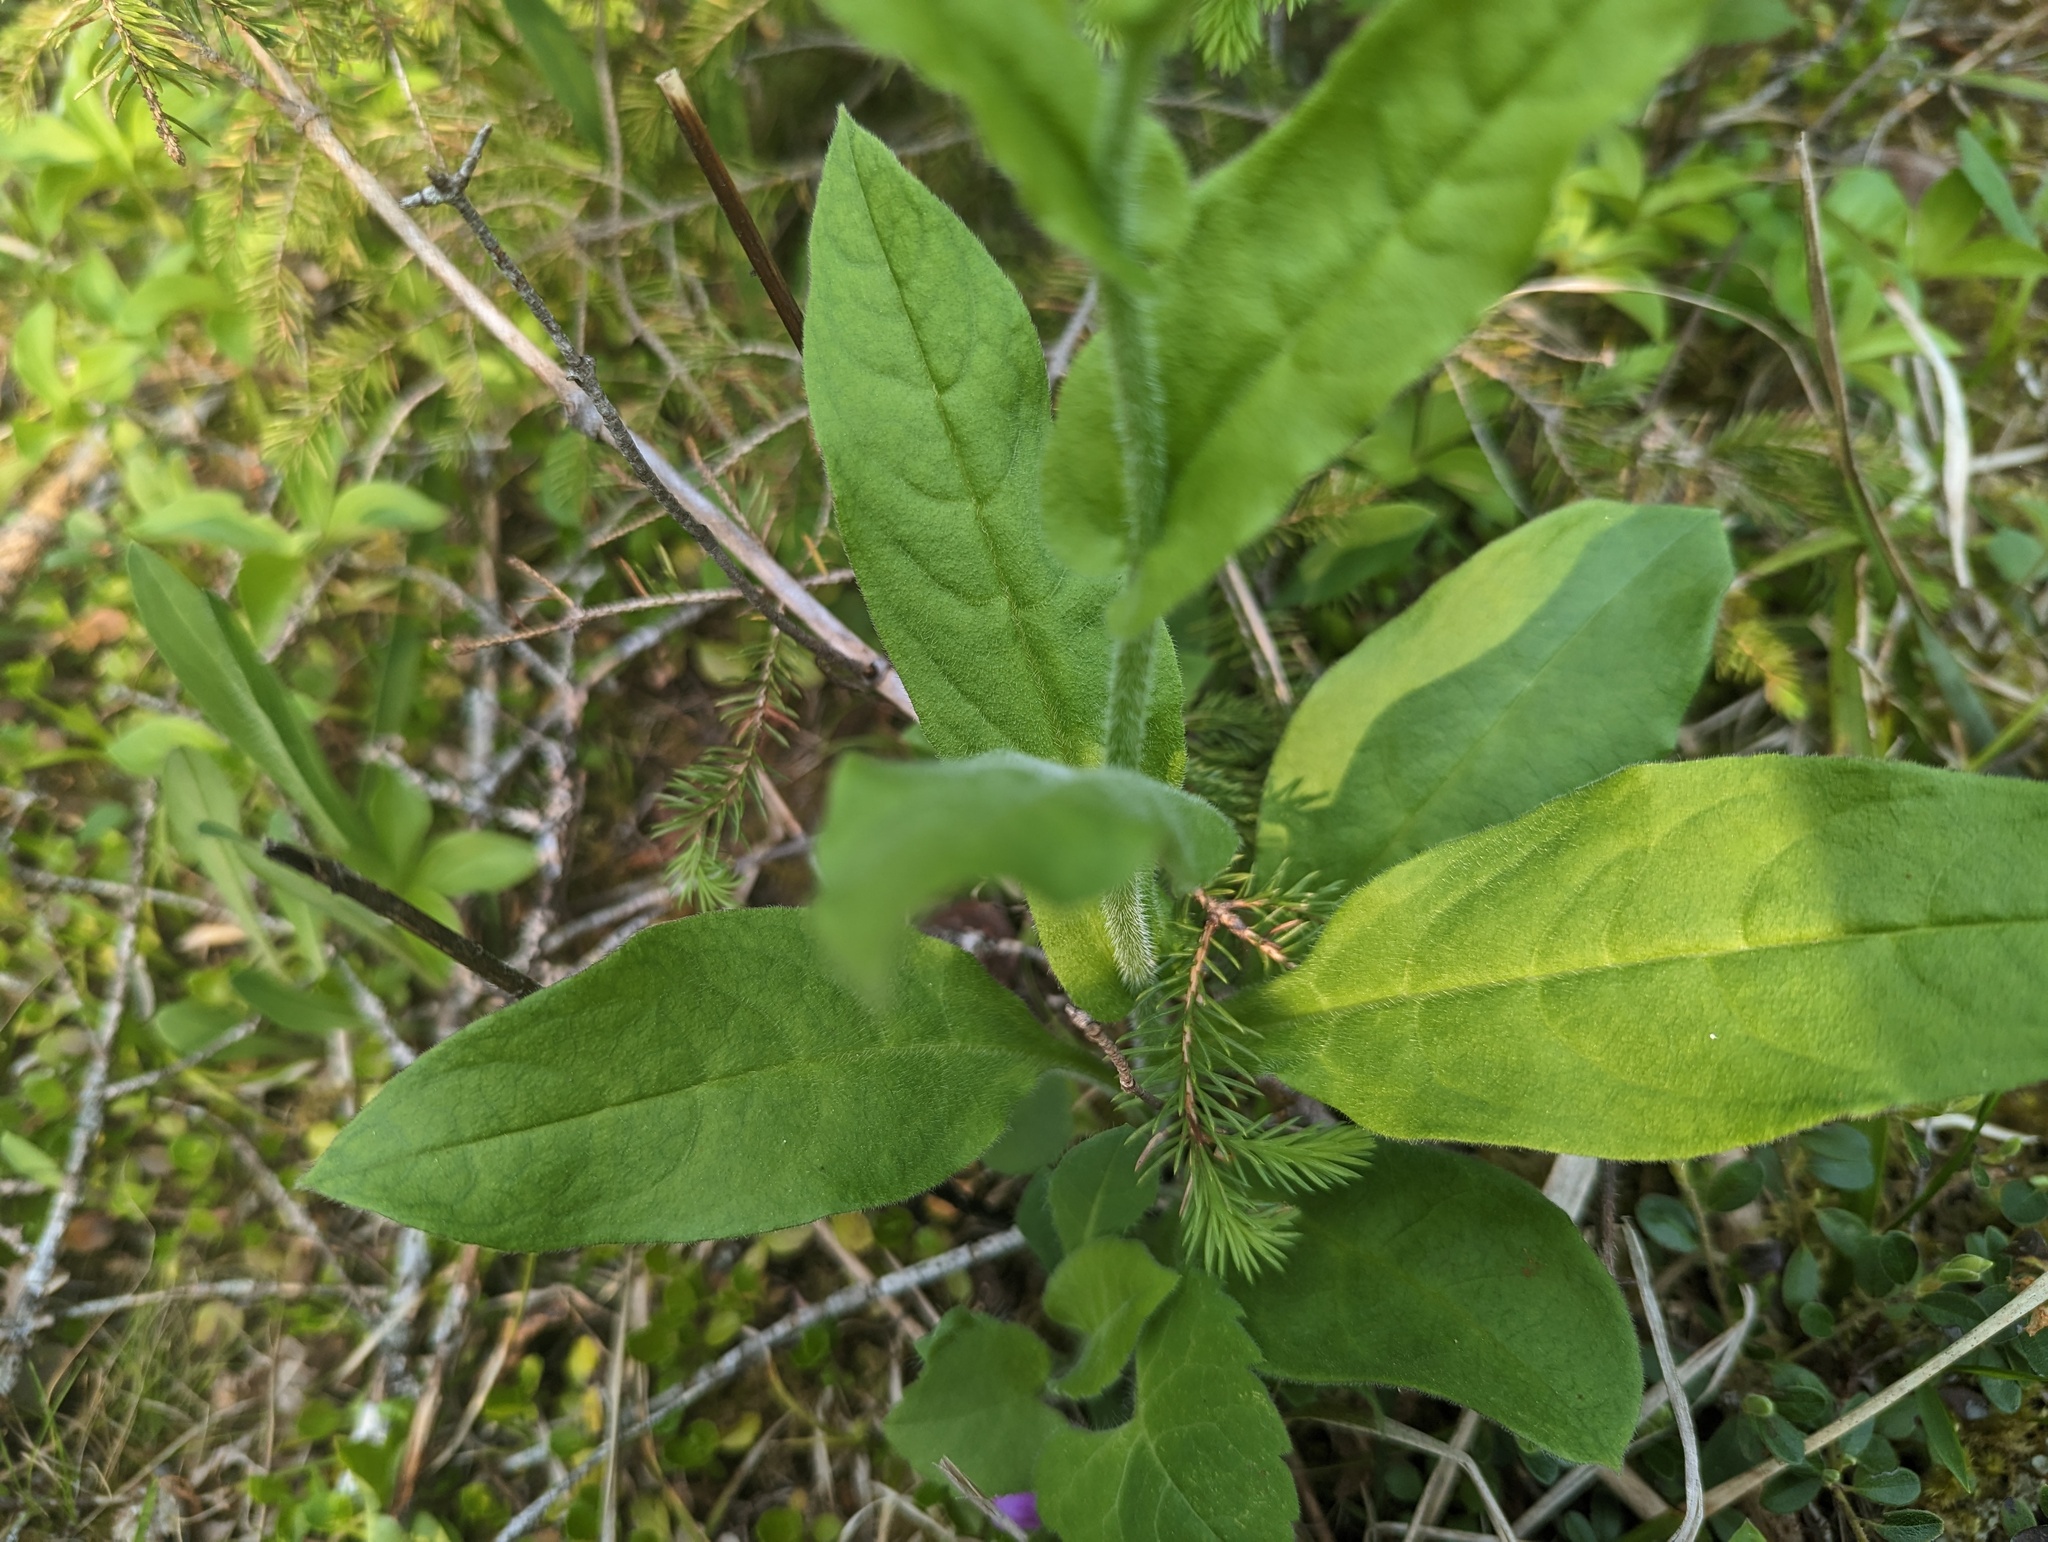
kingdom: Plantae
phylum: Tracheophyta
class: Magnoliopsida
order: Boraginales
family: Boraginaceae
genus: Andersonglossum
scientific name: Andersonglossum boreale
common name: Northern hound's-tongue
